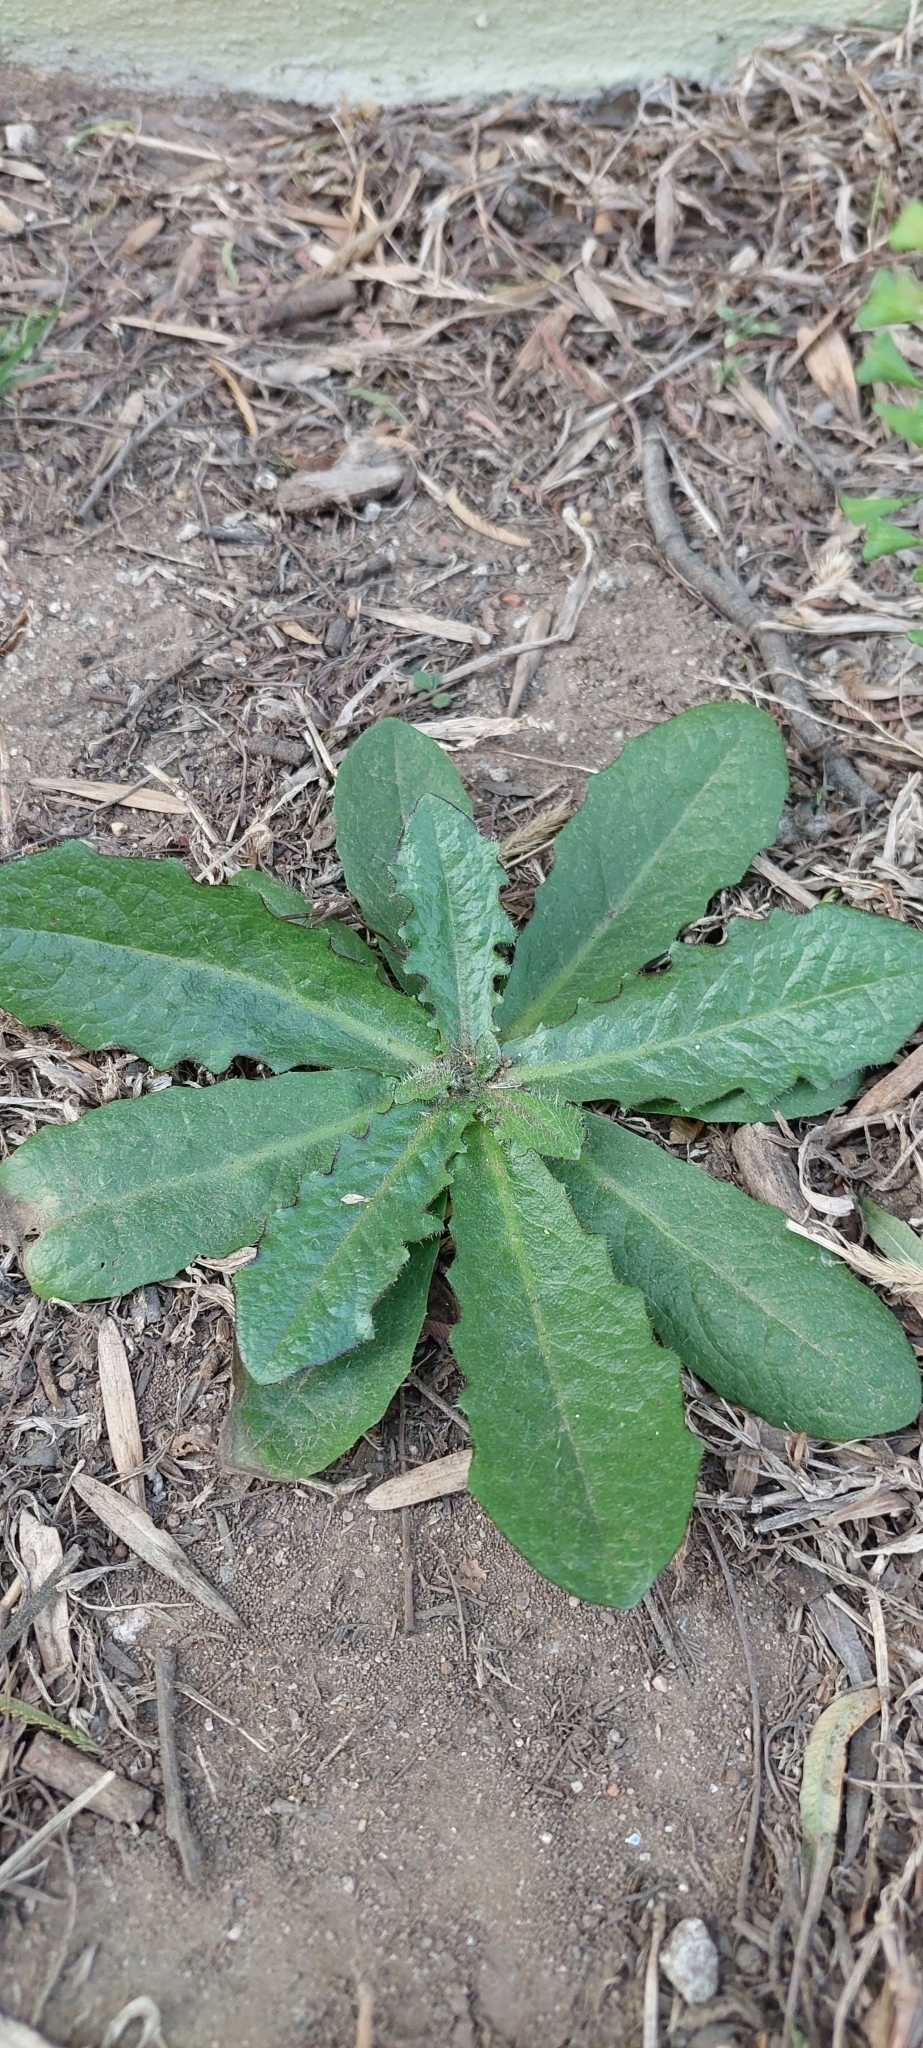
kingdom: Plantae
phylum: Tracheophyta
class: Magnoliopsida
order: Asterales
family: Asteraceae
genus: Hypochaeris
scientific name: Hypochaeris radicata
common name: Flatweed
